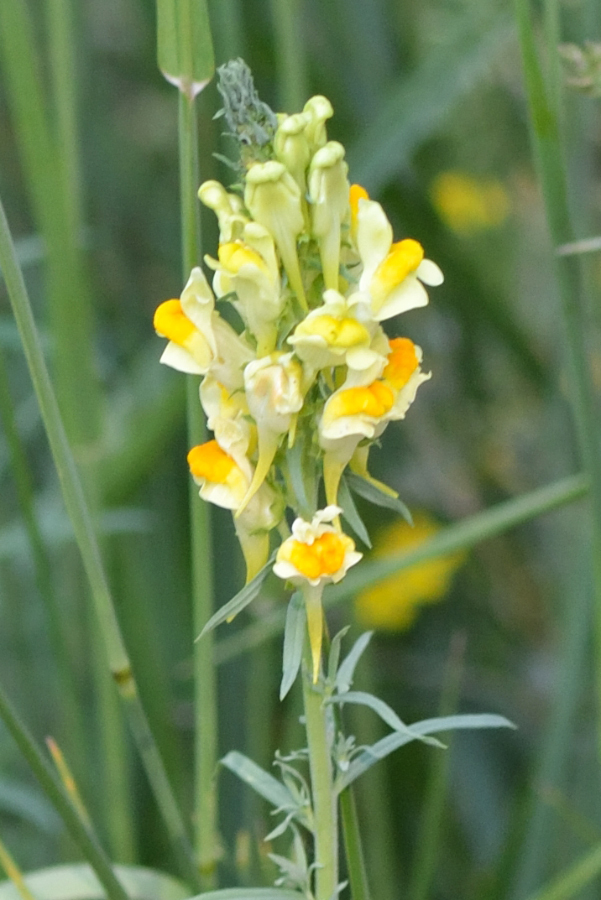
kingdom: Plantae
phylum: Tracheophyta
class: Magnoliopsida
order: Lamiales
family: Plantaginaceae
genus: Linaria
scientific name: Linaria vulgaris
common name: Butter and eggs
